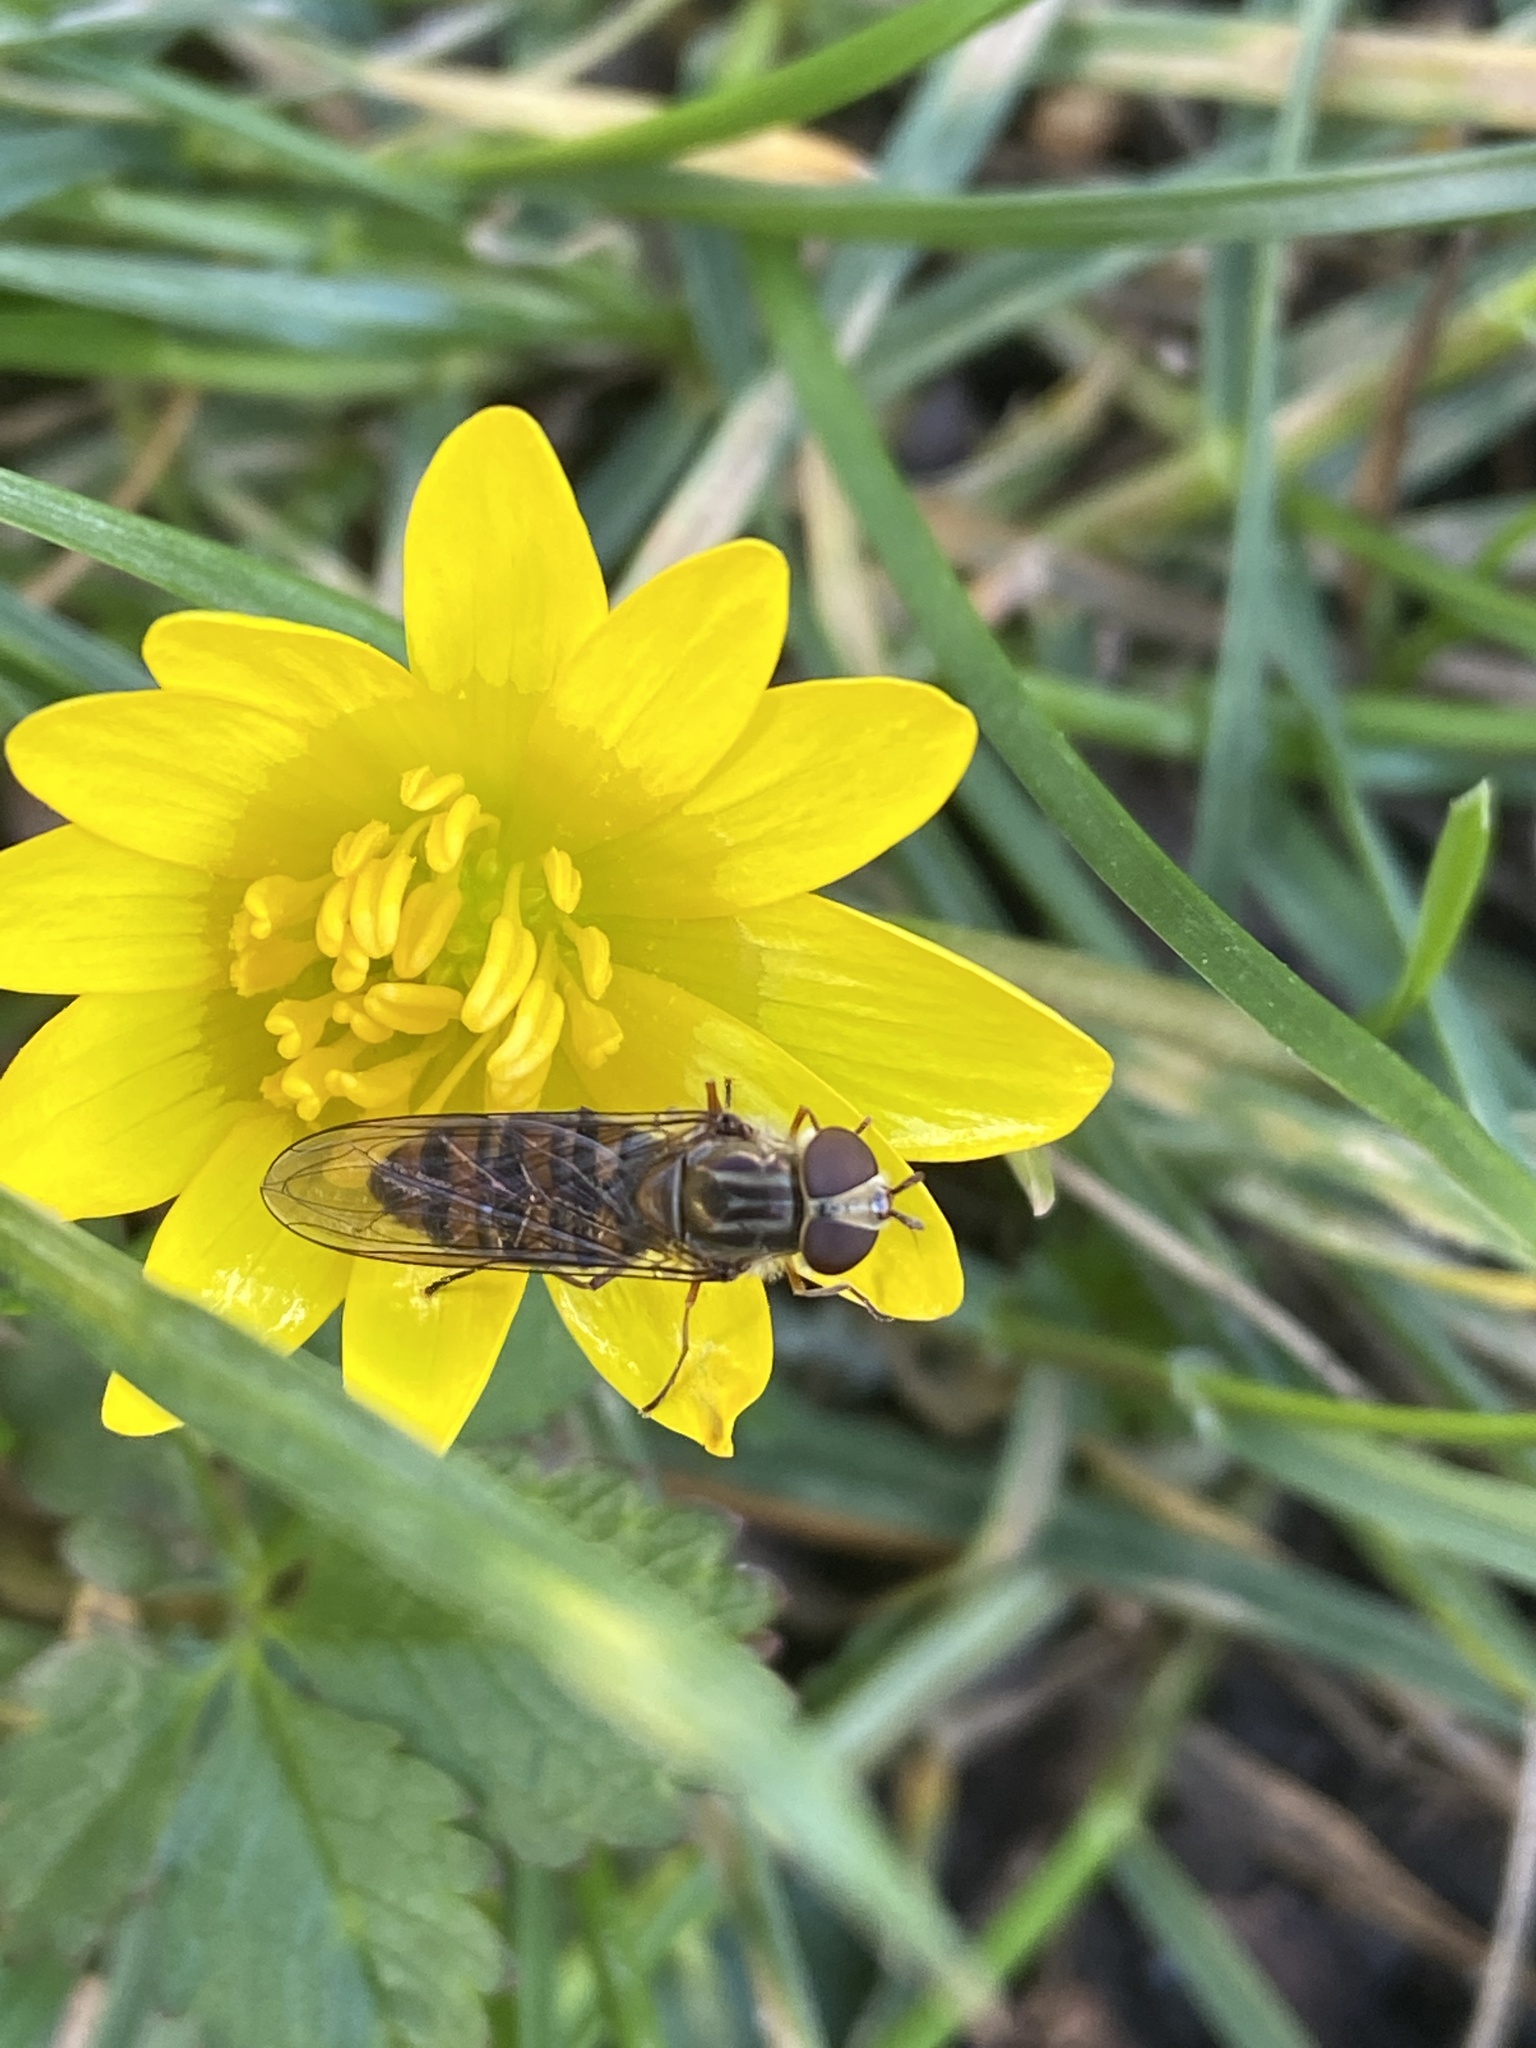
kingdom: Animalia
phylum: Arthropoda
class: Insecta
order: Diptera
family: Syrphidae
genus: Episyrphus
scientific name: Episyrphus balteatus
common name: Marmalade hoverfly
